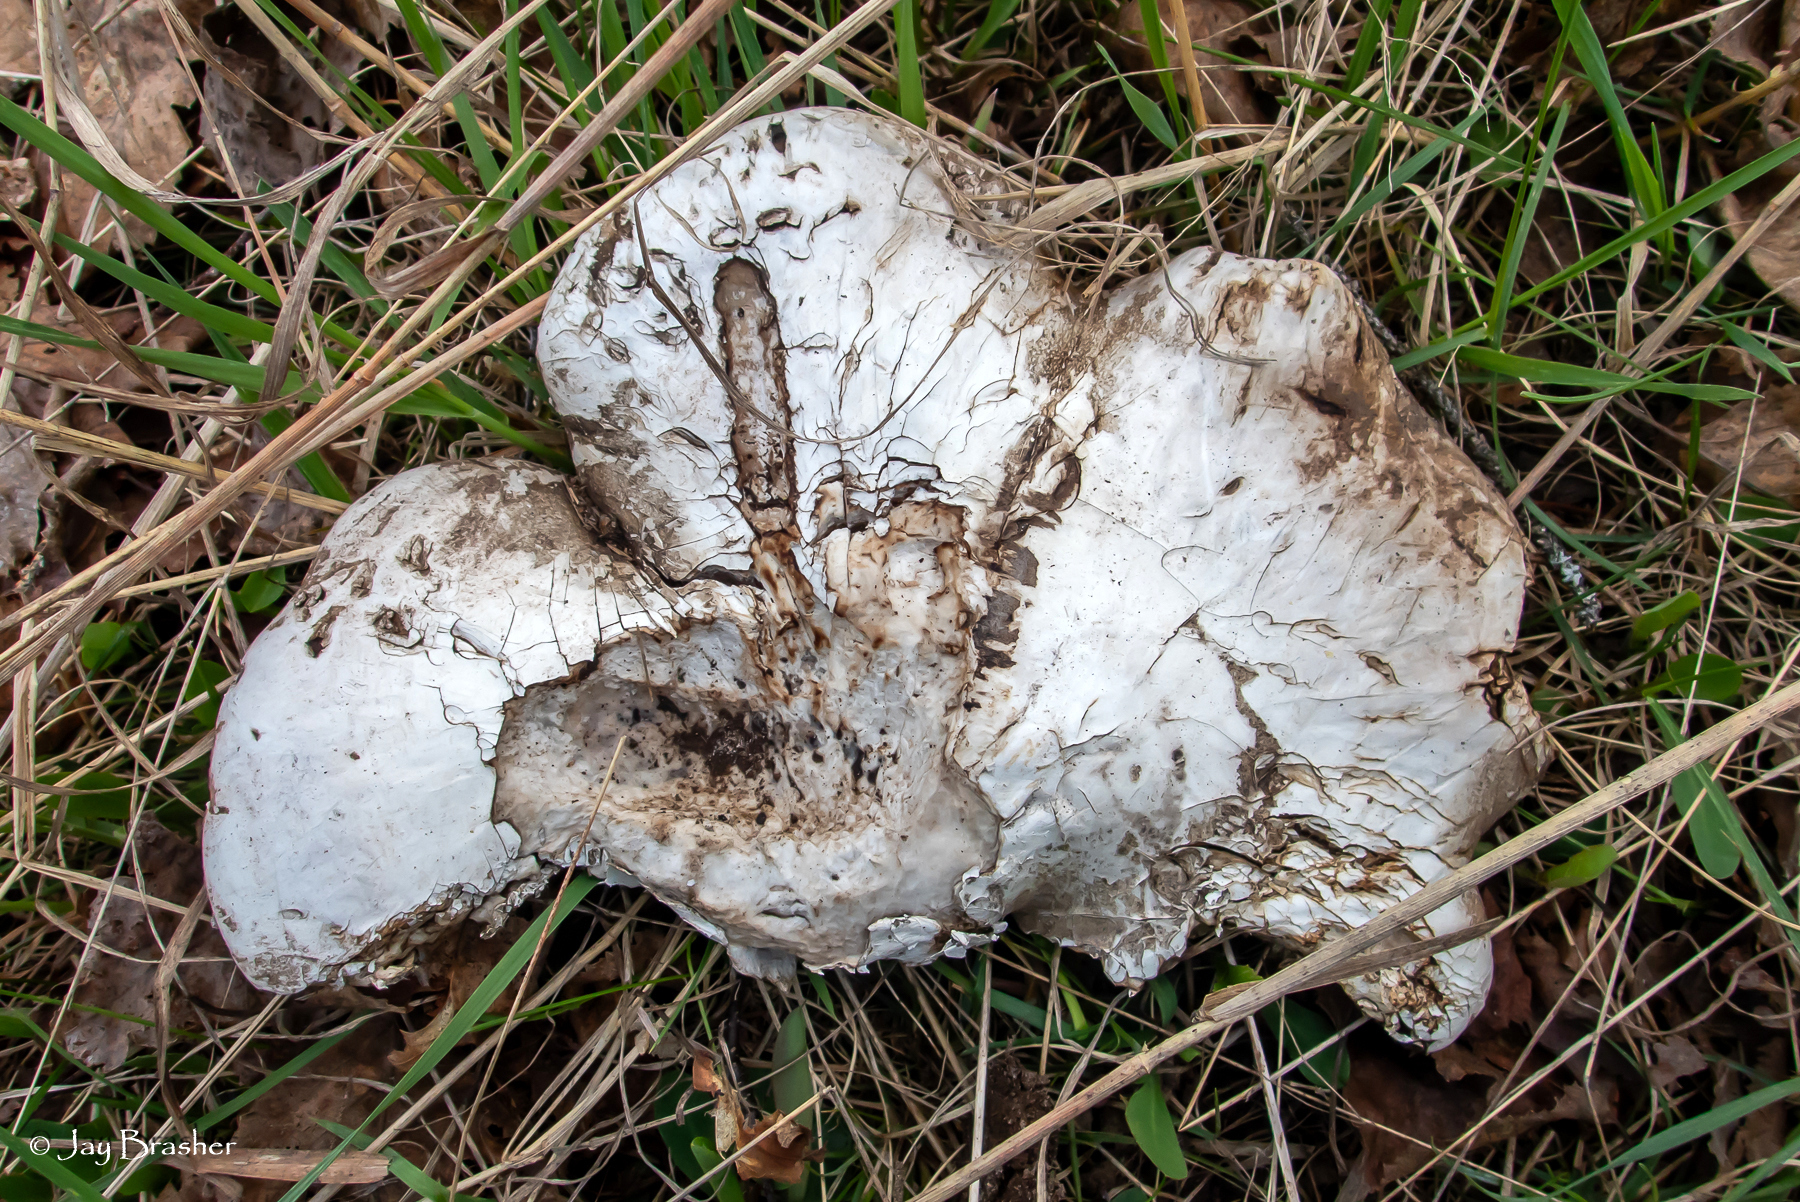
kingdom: Fungi
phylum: Basidiomycota
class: Agaricomycetes
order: Polyporales
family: Fomitopsidaceae
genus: Fomitopsis
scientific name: Fomitopsis betulina
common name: Birch polypore
